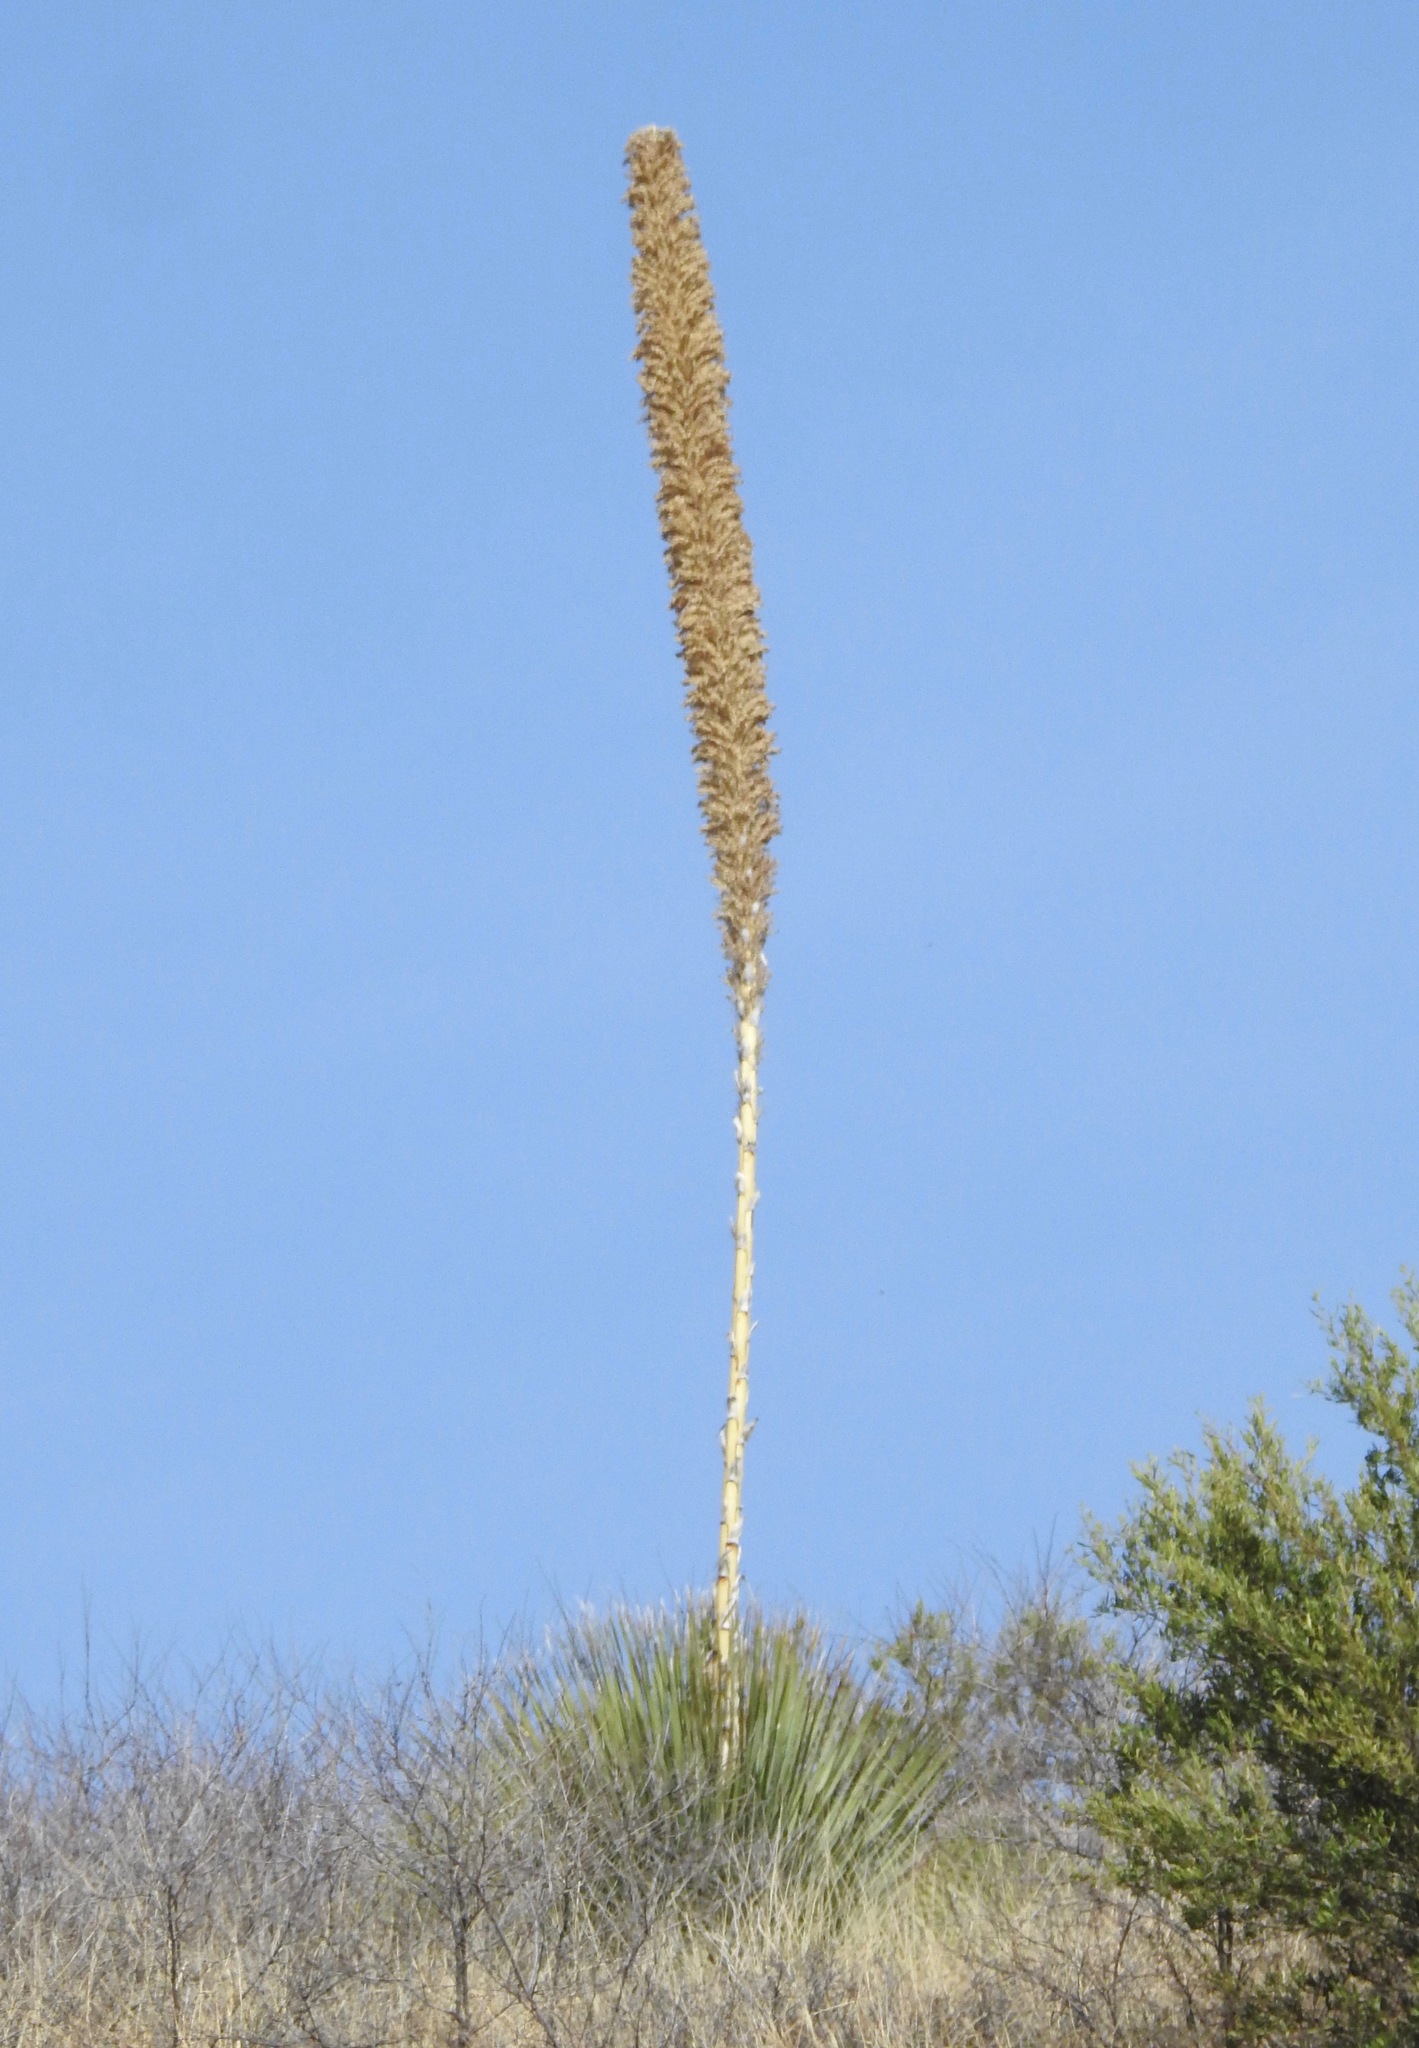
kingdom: Plantae
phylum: Tracheophyta
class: Liliopsida
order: Asparagales
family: Asparagaceae
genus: Dasylirion
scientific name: Dasylirion wheeleri
